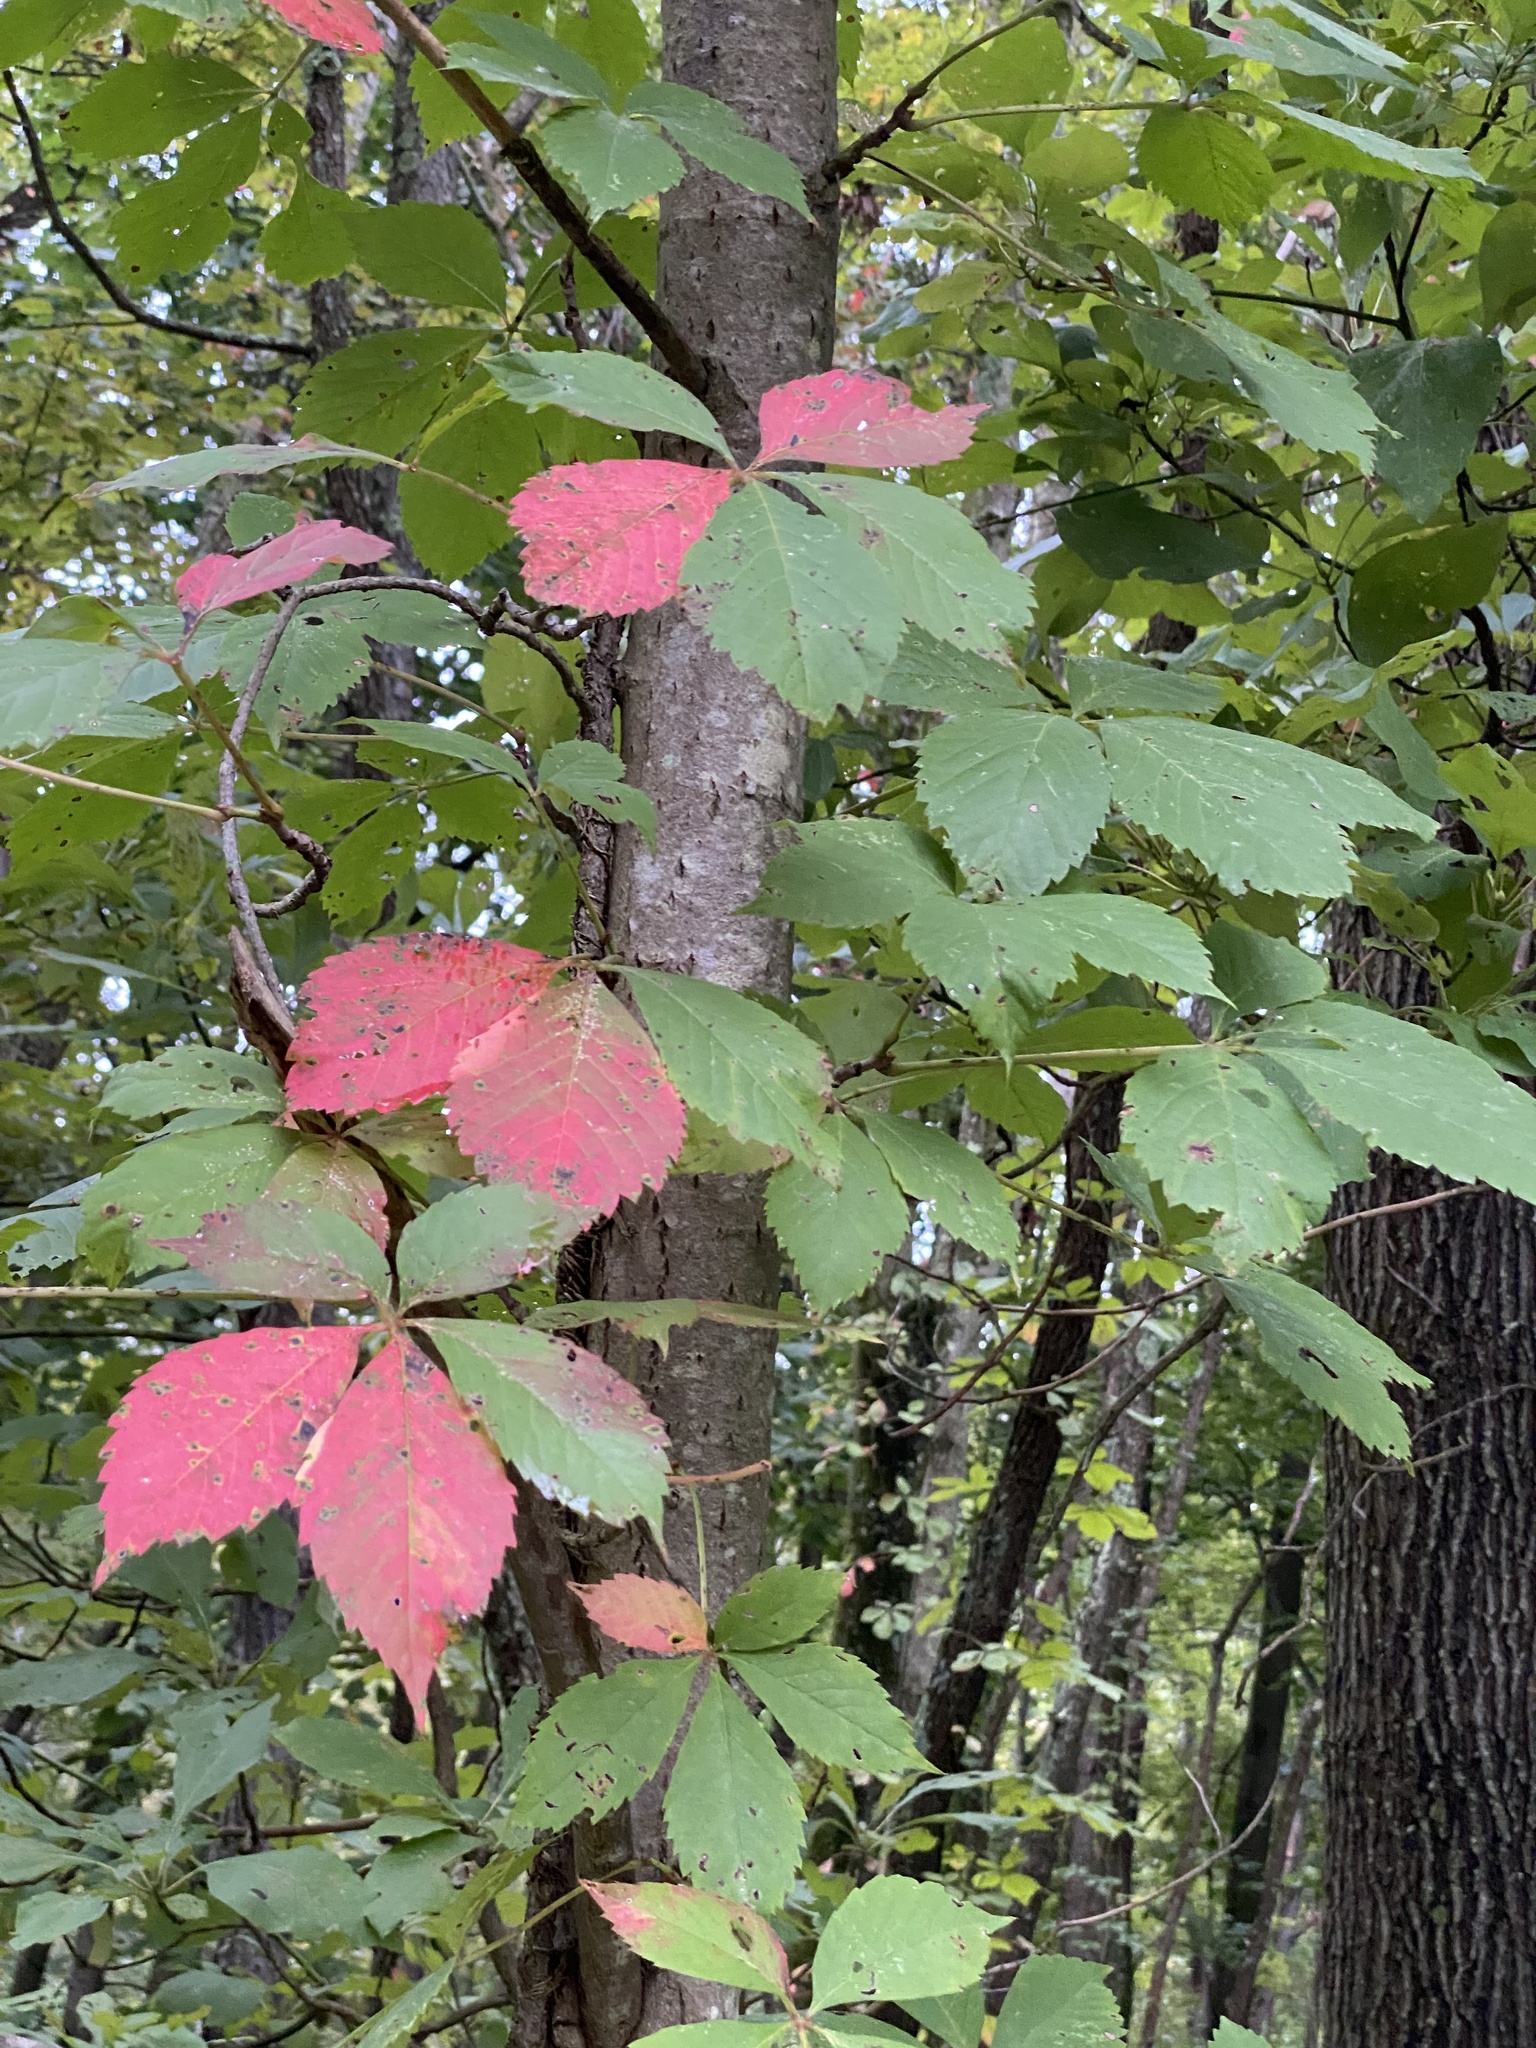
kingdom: Plantae
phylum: Tracheophyta
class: Magnoliopsida
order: Vitales
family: Vitaceae
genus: Parthenocissus
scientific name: Parthenocissus quinquefolia
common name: Virginia-creeper
